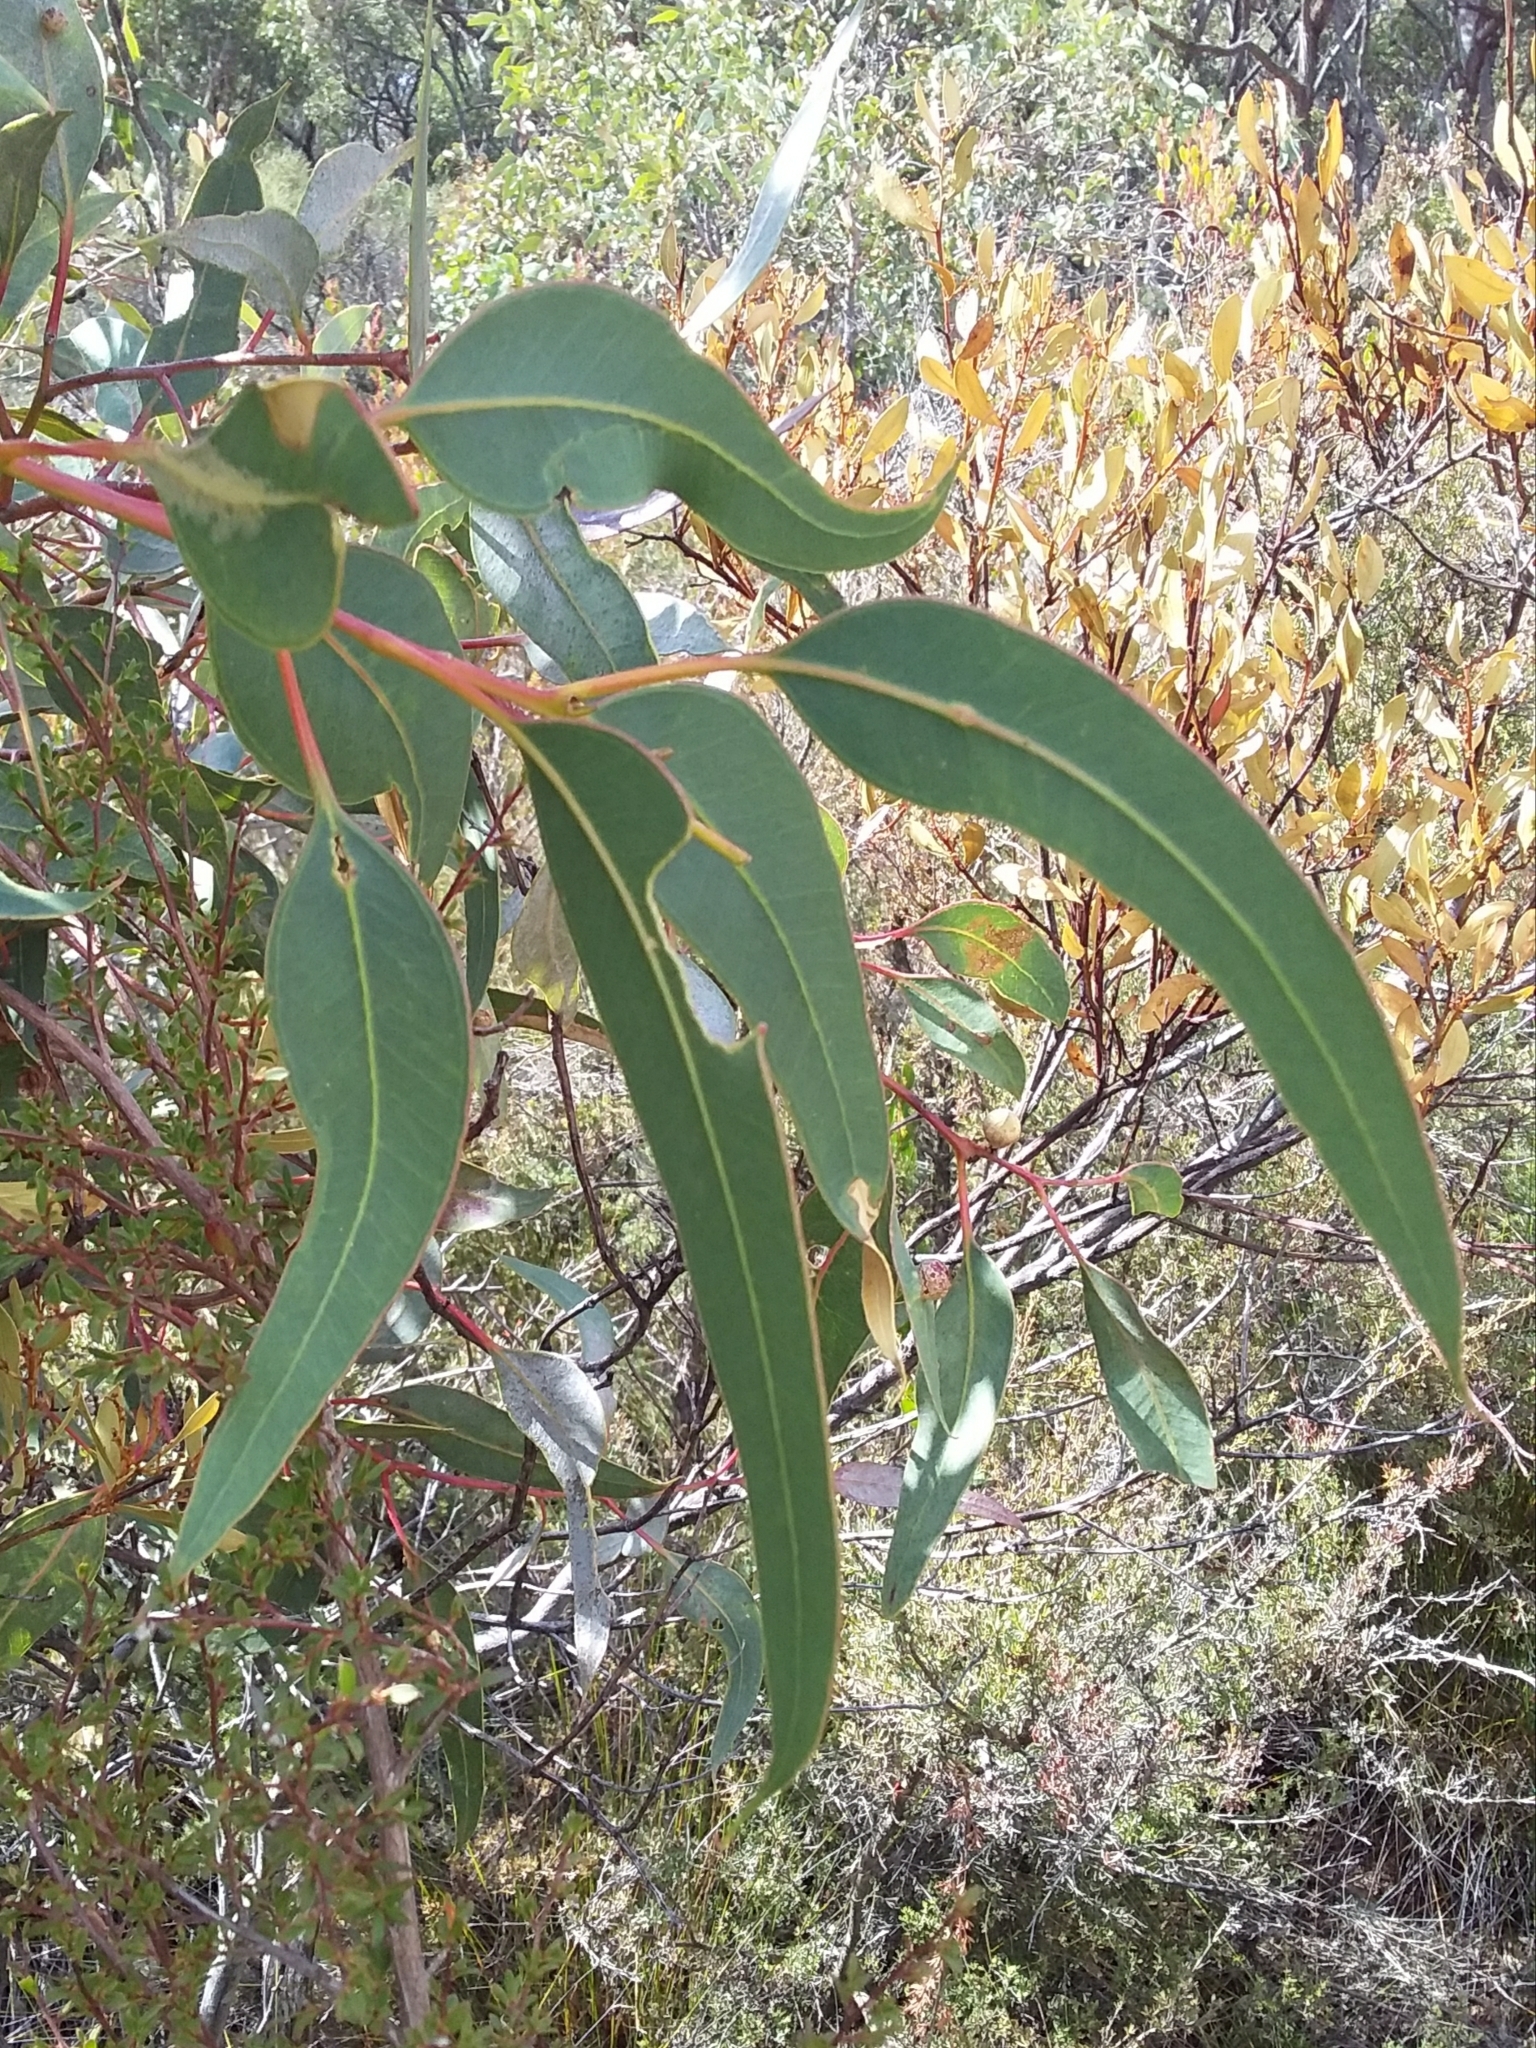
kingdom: Plantae
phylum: Tracheophyta
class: Magnoliopsida
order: Myrtales
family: Myrtaceae
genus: Eucalyptus
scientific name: Eucalyptus cosmophylla
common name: Bog-gum
